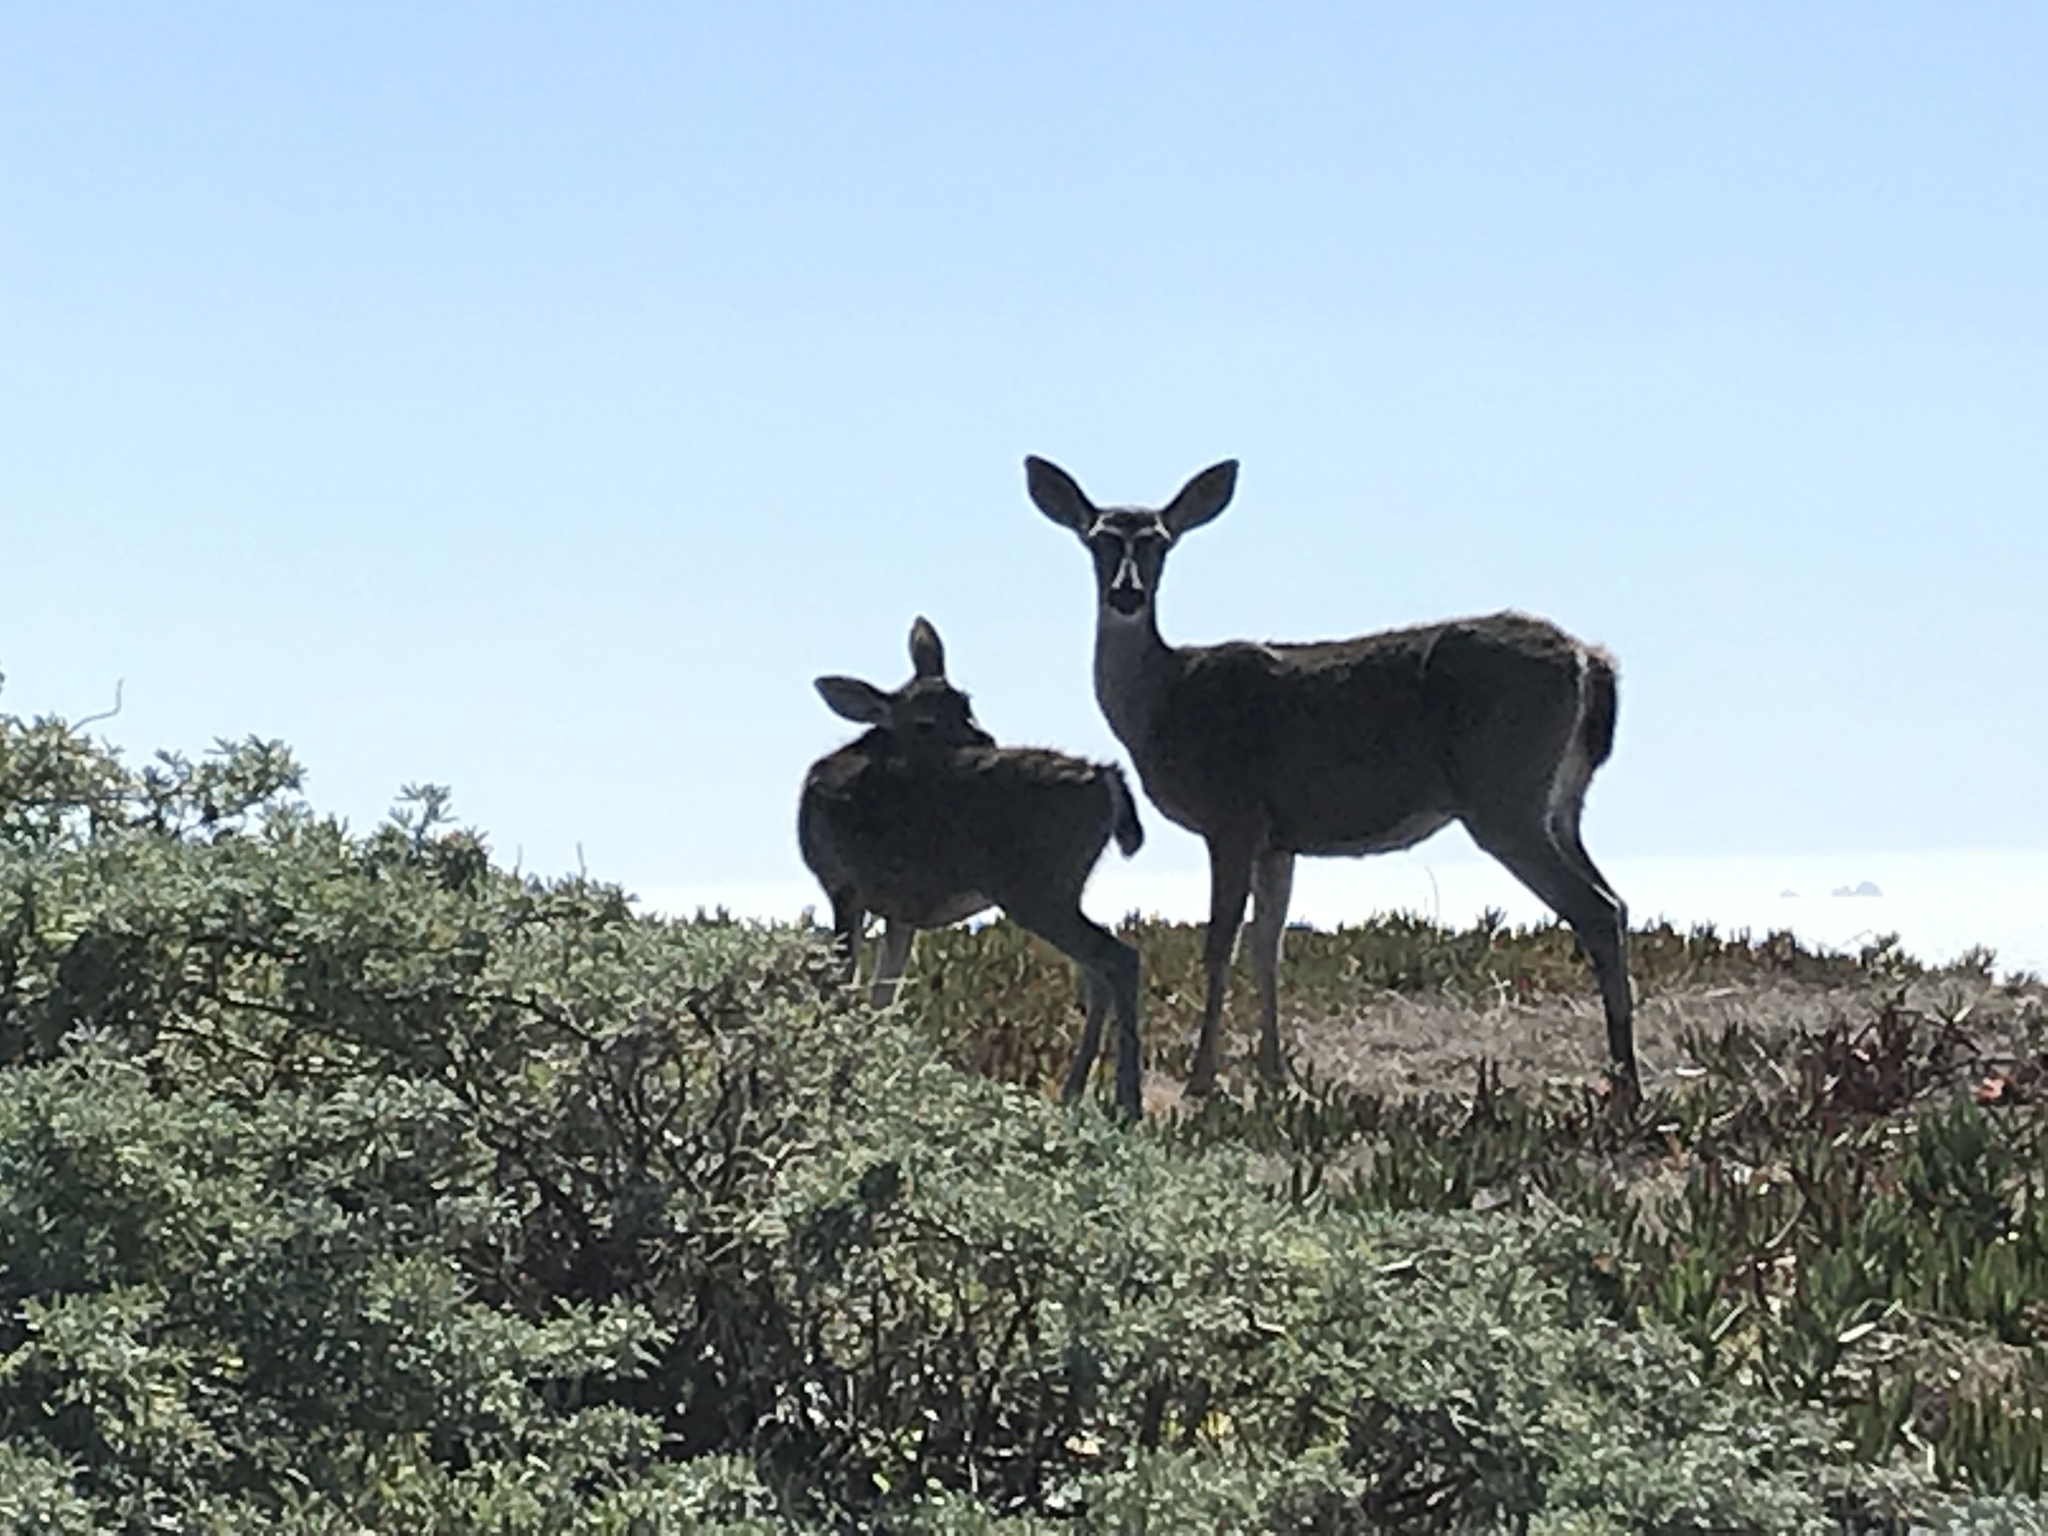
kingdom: Animalia
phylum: Chordata
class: Mammalia
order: Artiodactyla
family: Cervidae
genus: Odocoileus
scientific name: Odocoileus hemionus
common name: Mule deer
